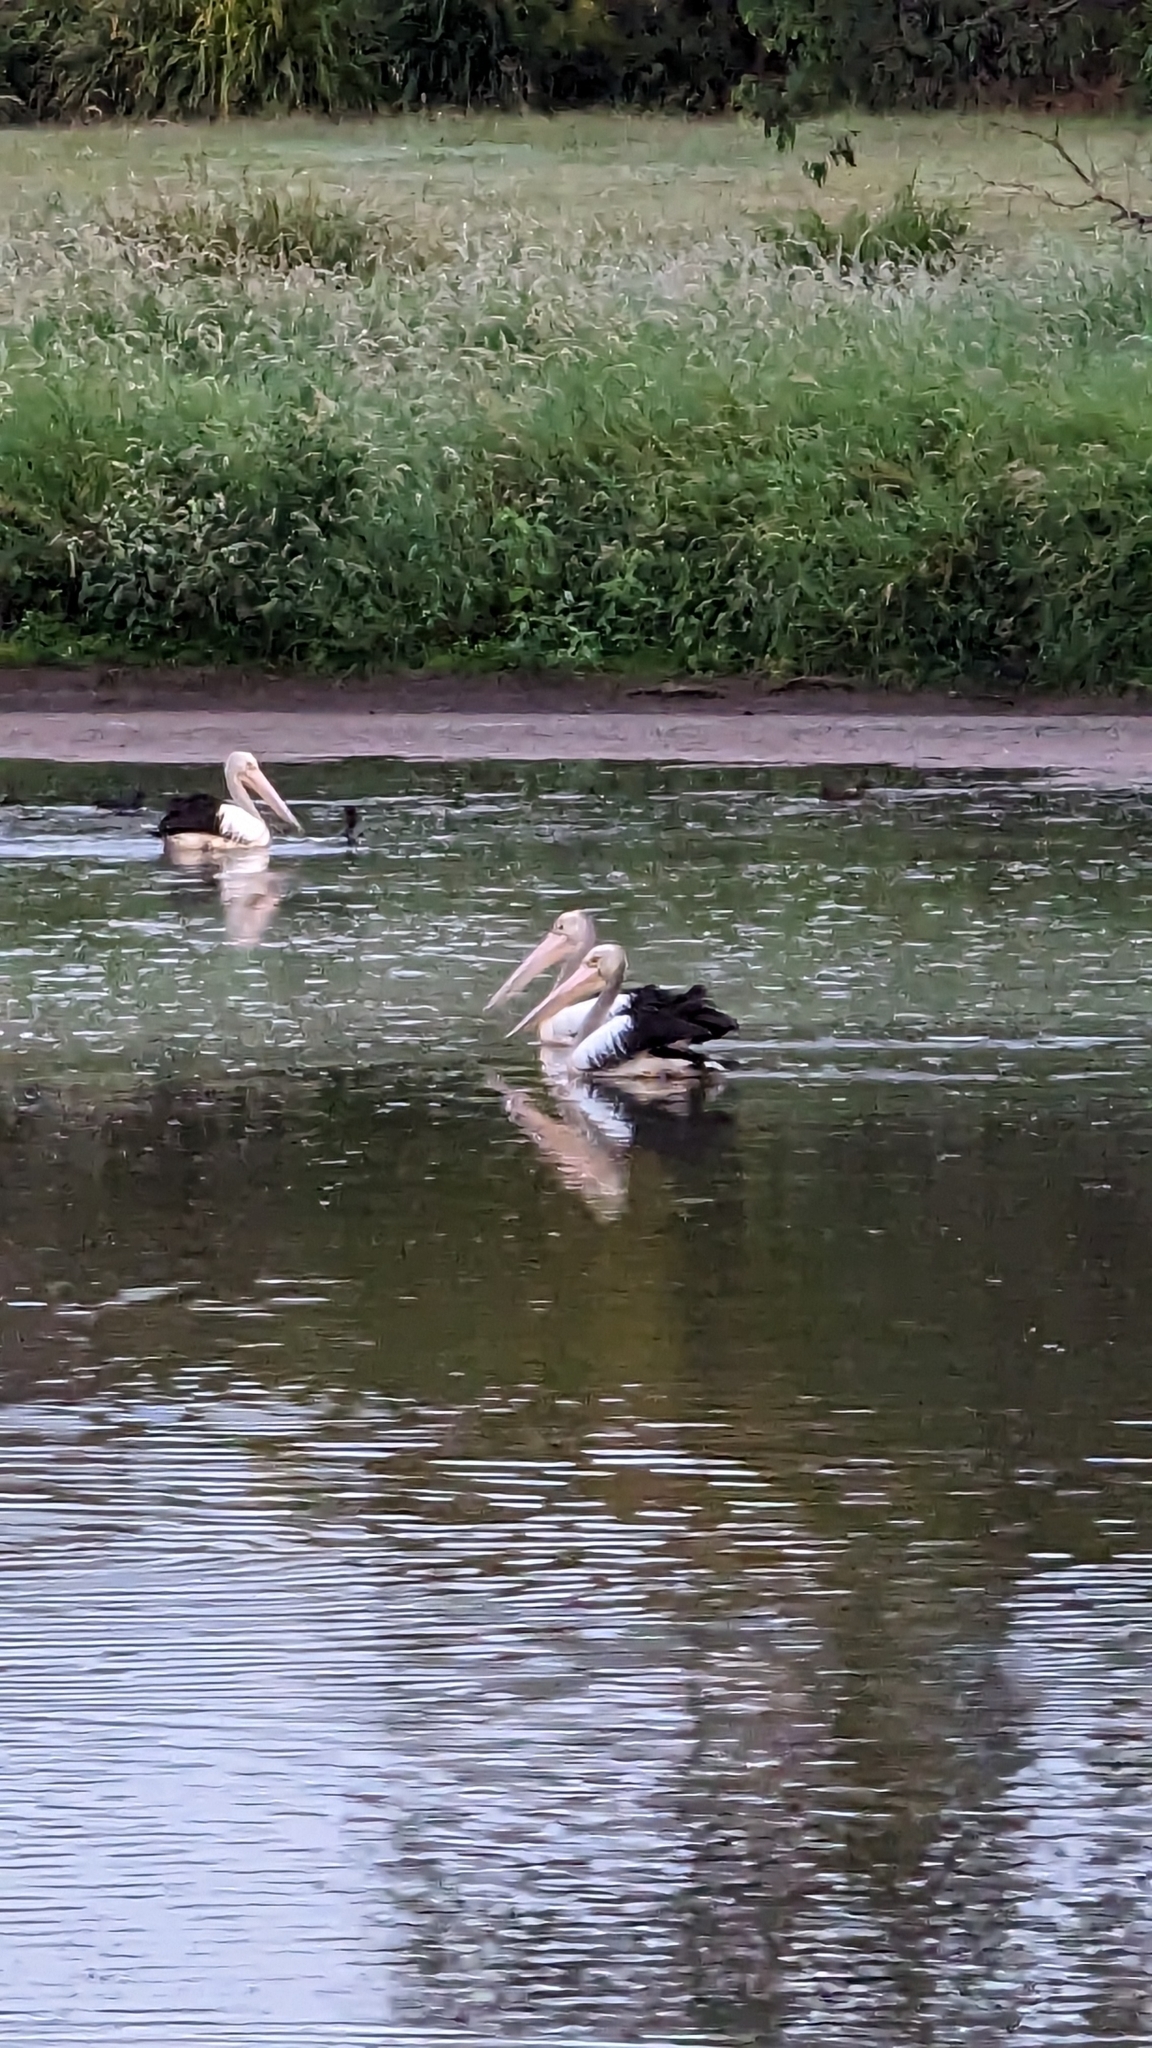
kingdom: Animalia
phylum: Chordata
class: Aves
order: Pelecaniformes
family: Pelecanidae
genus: Pelecanus
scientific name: Pelecanus conspicillatus
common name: Australian pelican
